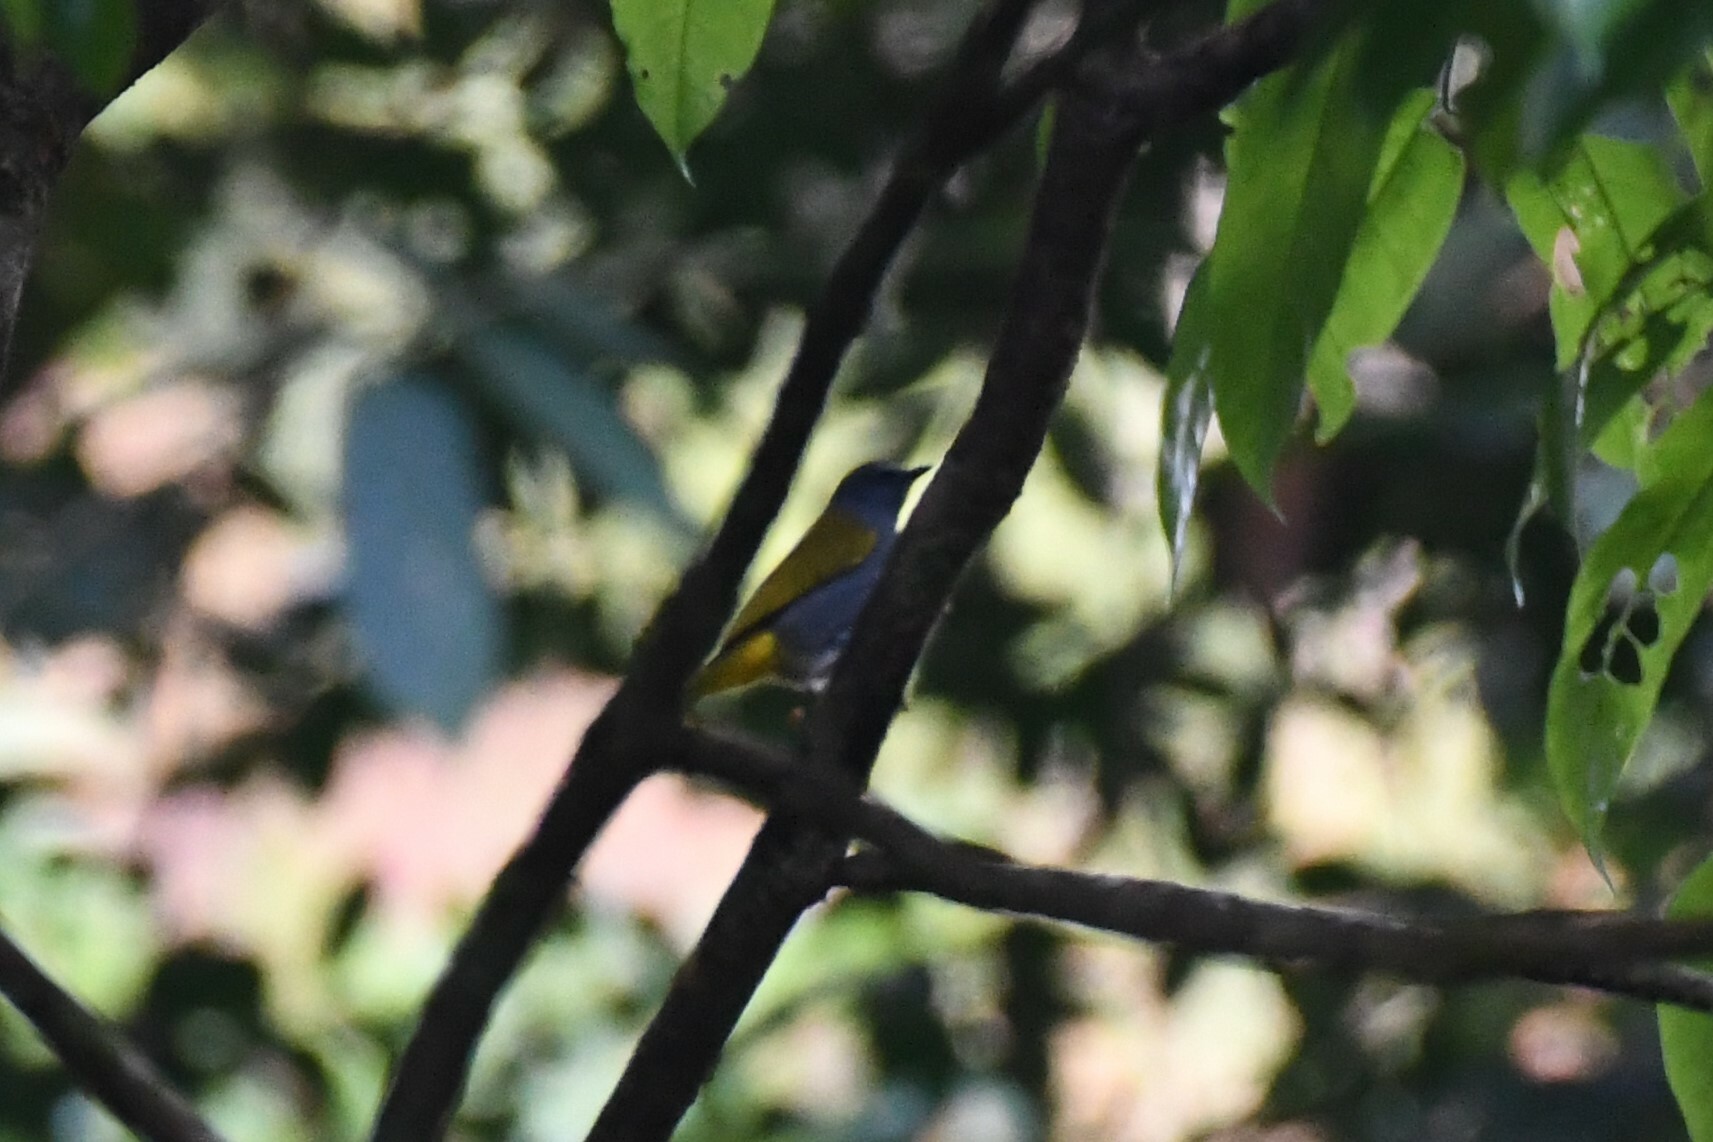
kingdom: Animalia
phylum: Chordata
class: Aves
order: Passeriformes
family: Pycnonotidae
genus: Rubigula
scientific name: Rubigula cyaniventris
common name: Gray-bellied bulbul
